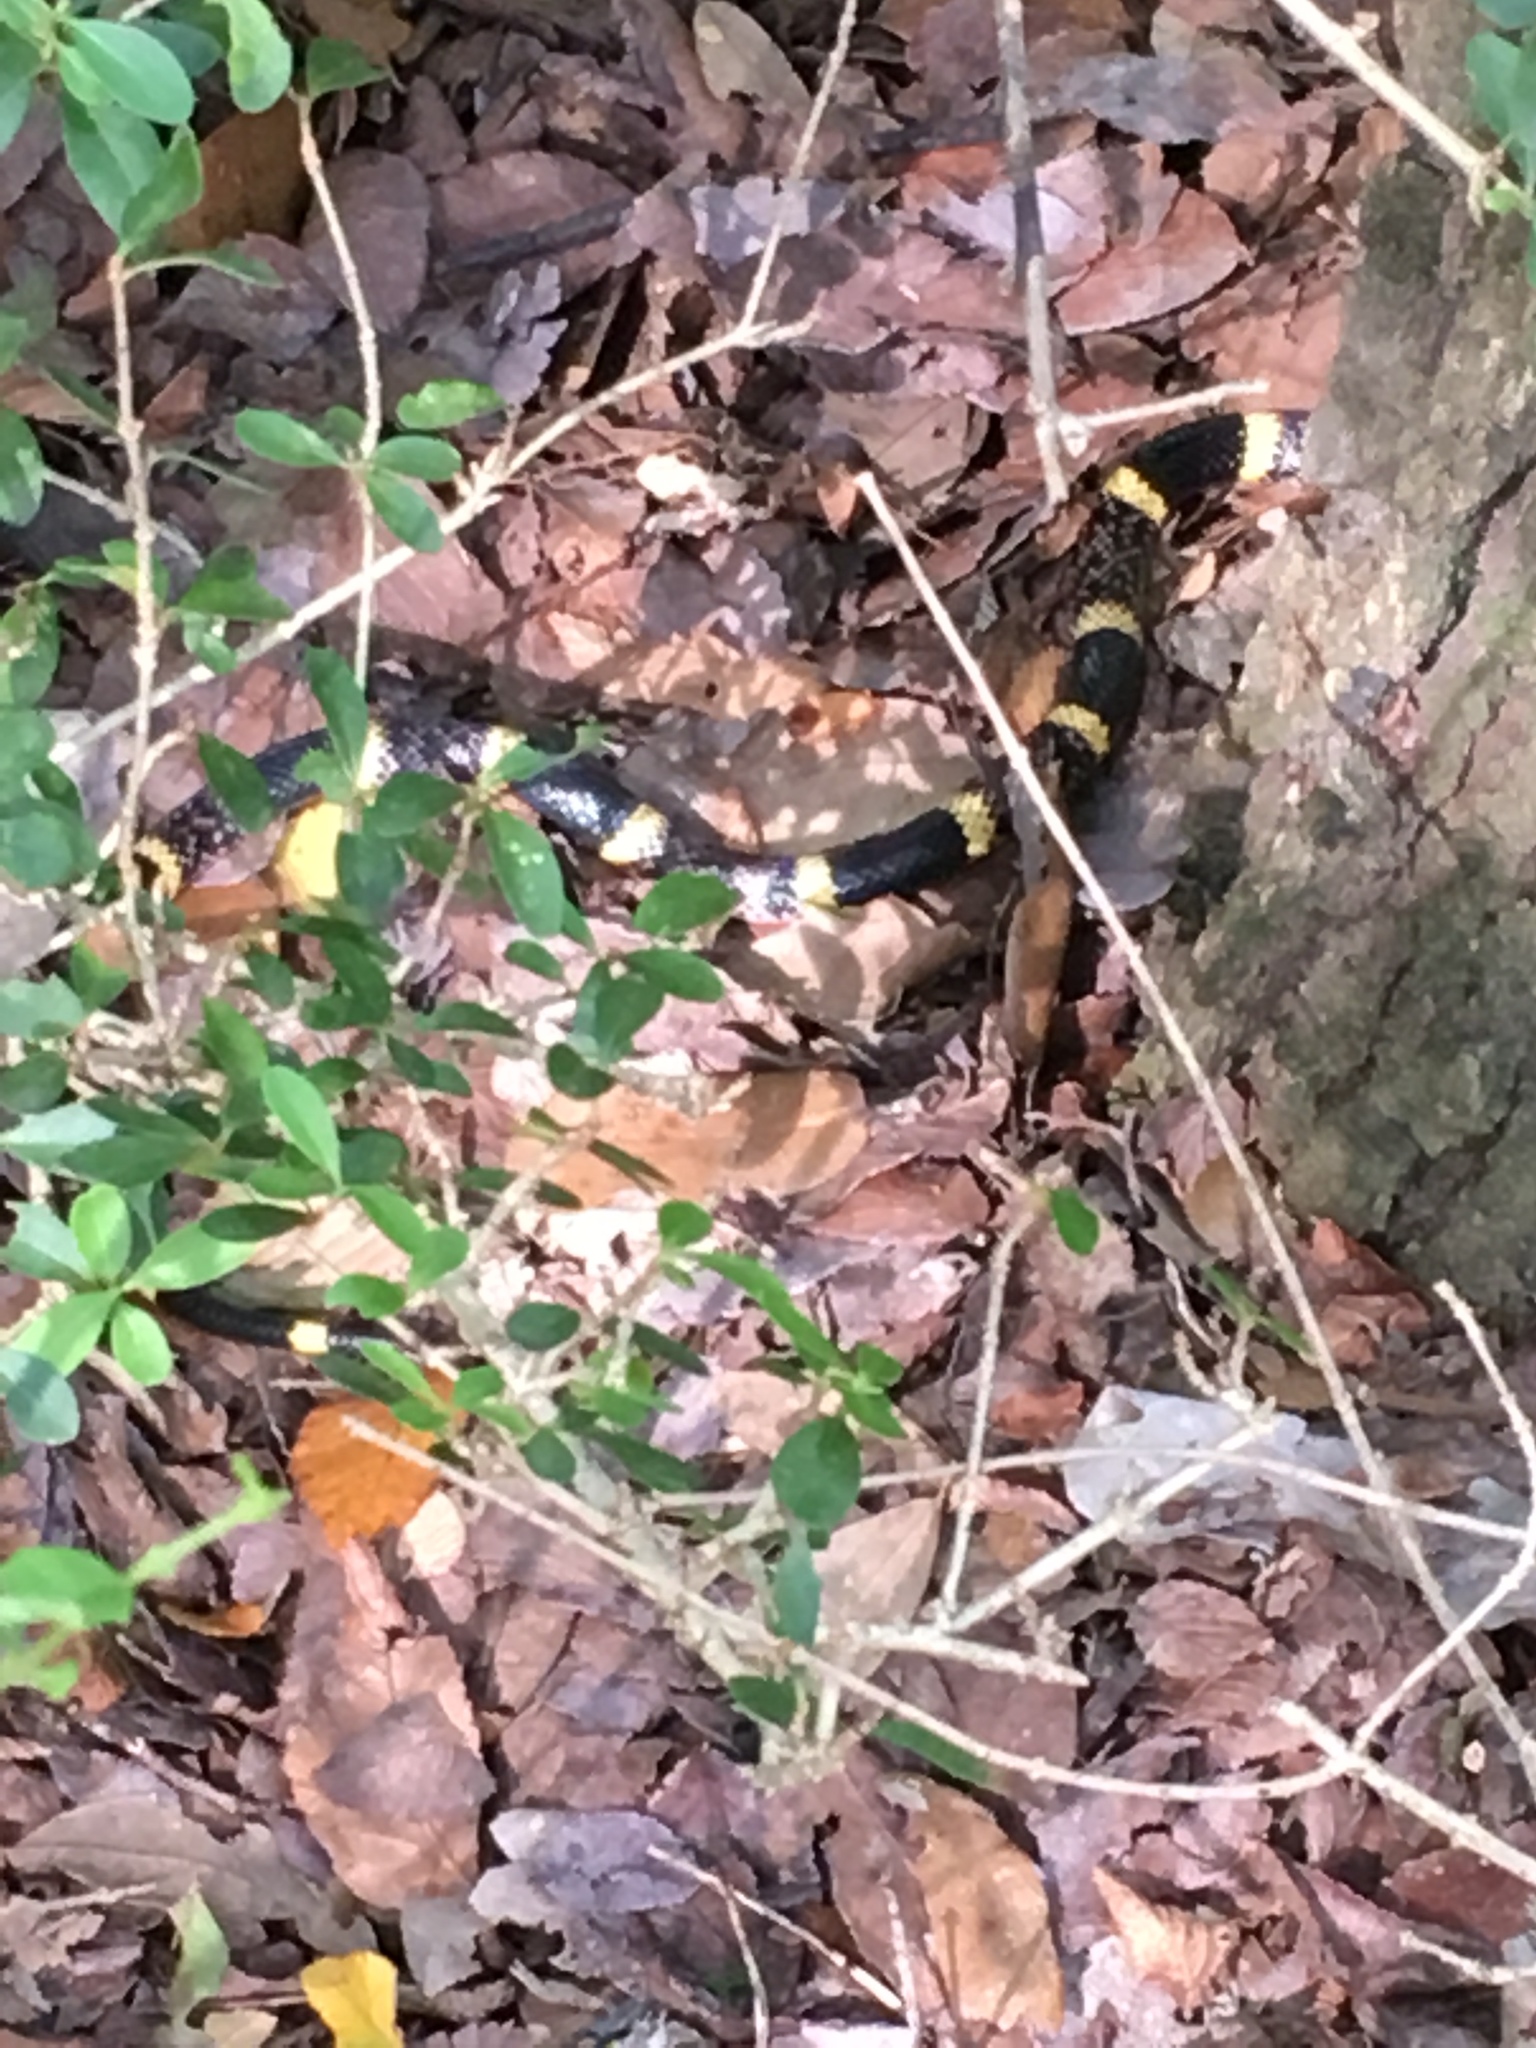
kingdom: Animalia
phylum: Chordata
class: Squamata
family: Elapidae
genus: Micrurus
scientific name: Micrurus tener
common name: Texas coral snake
